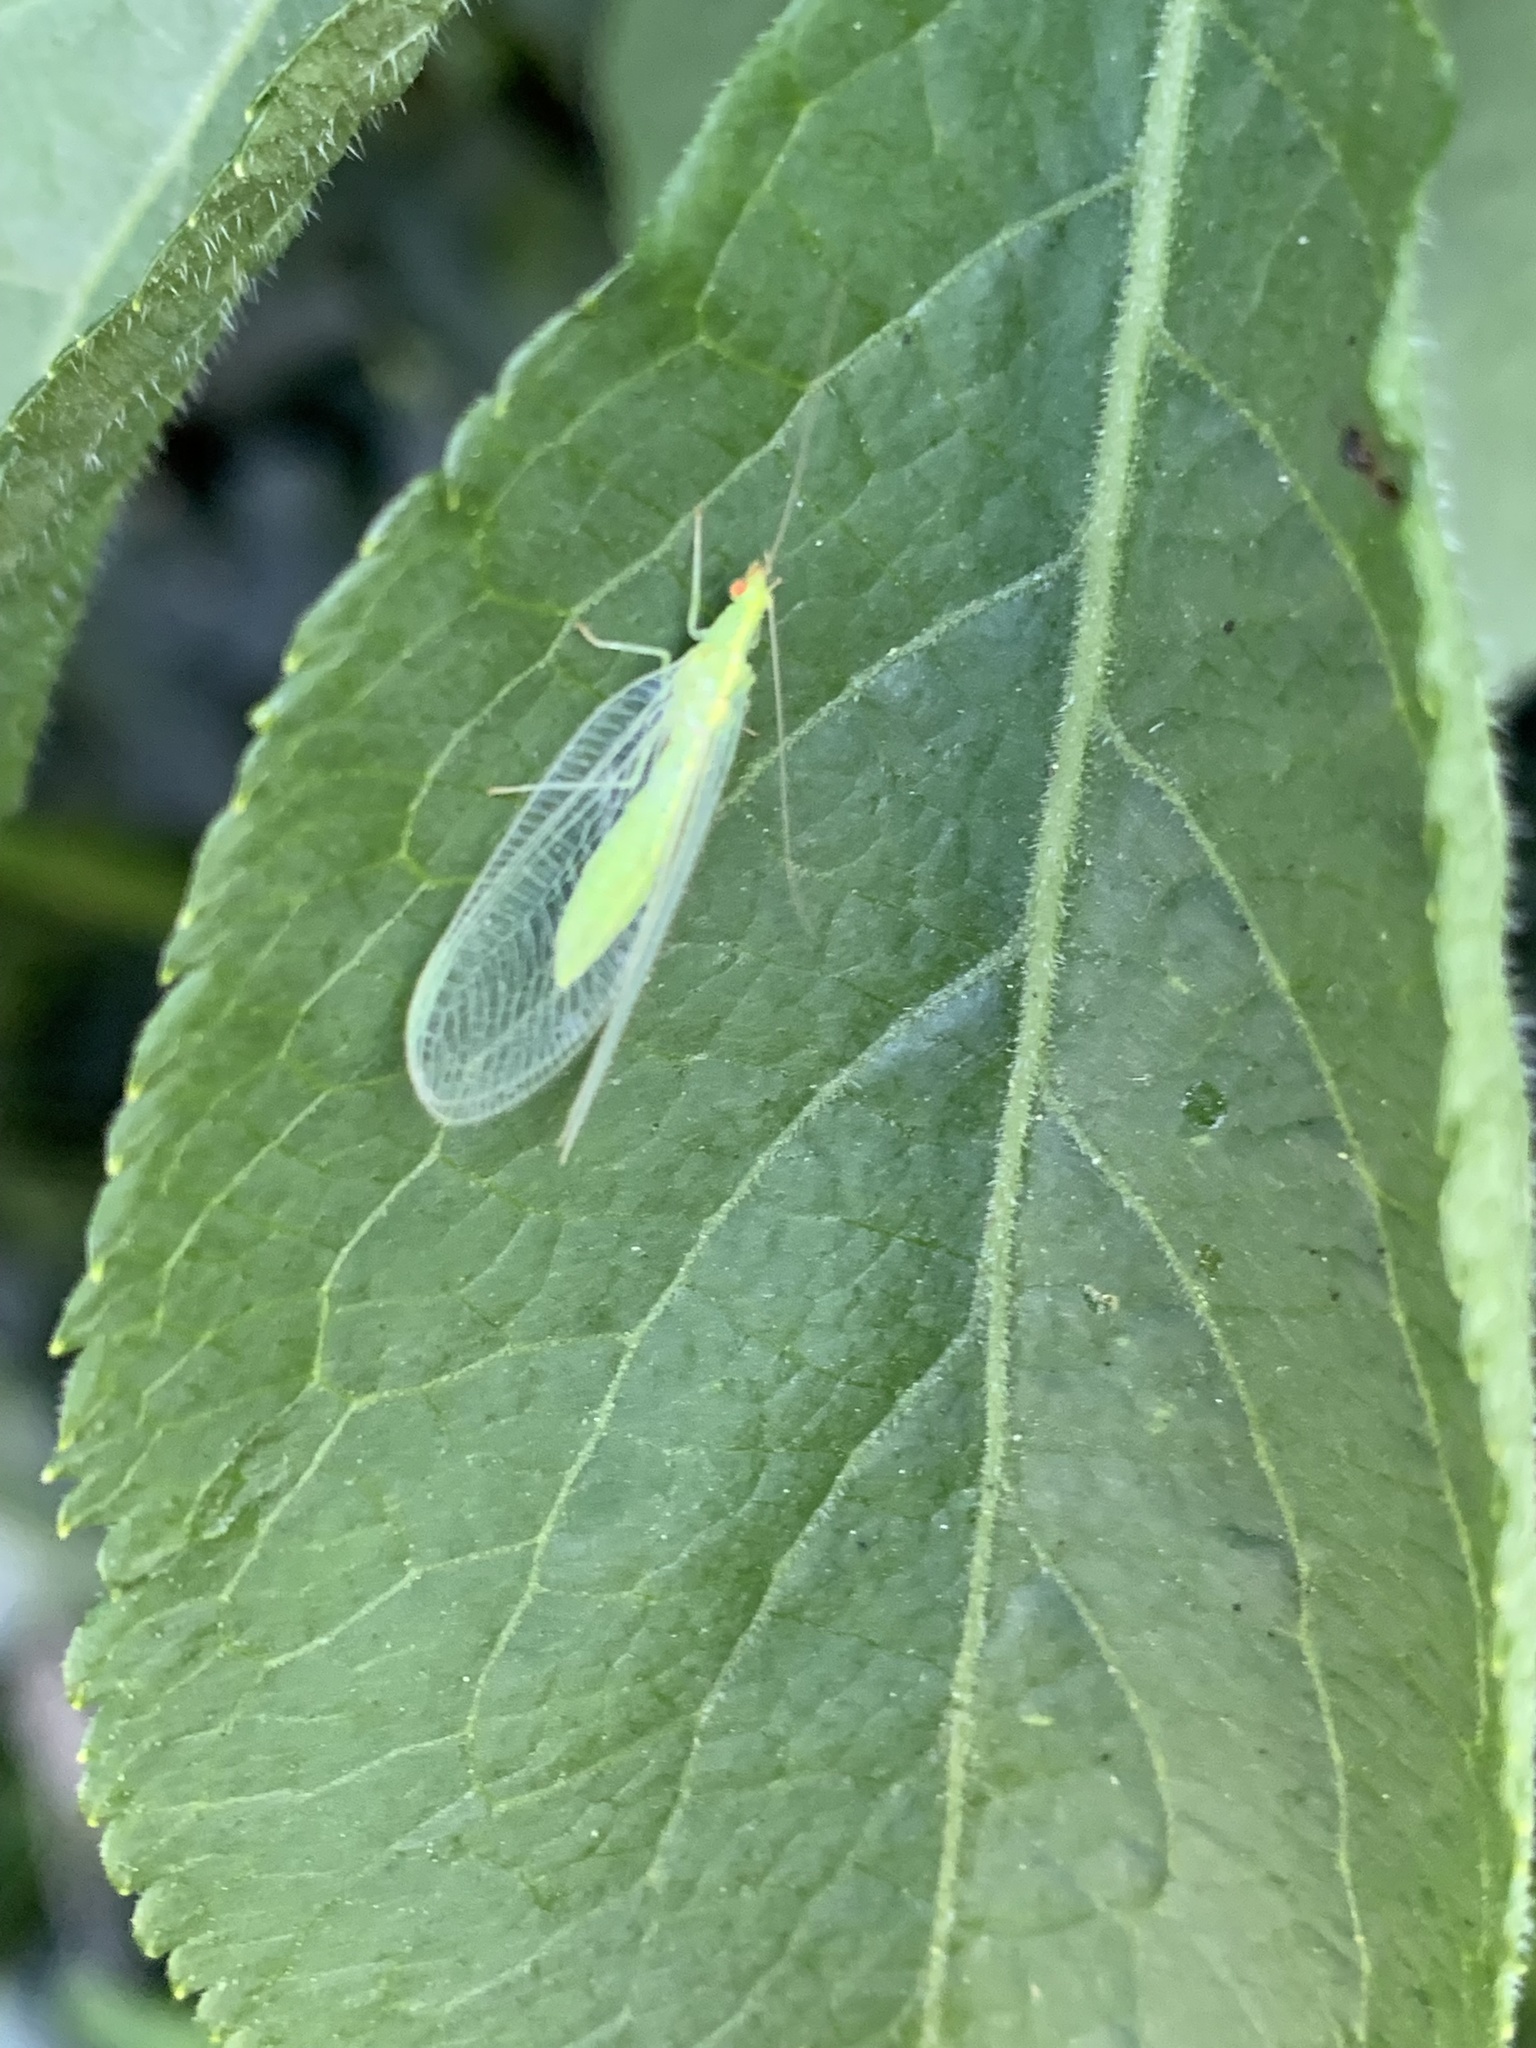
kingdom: Animalia
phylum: Arthropoda
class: Insecta
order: Neuroptera
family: Chrysopidae
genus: Chrysoperla
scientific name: Chrysoperla
